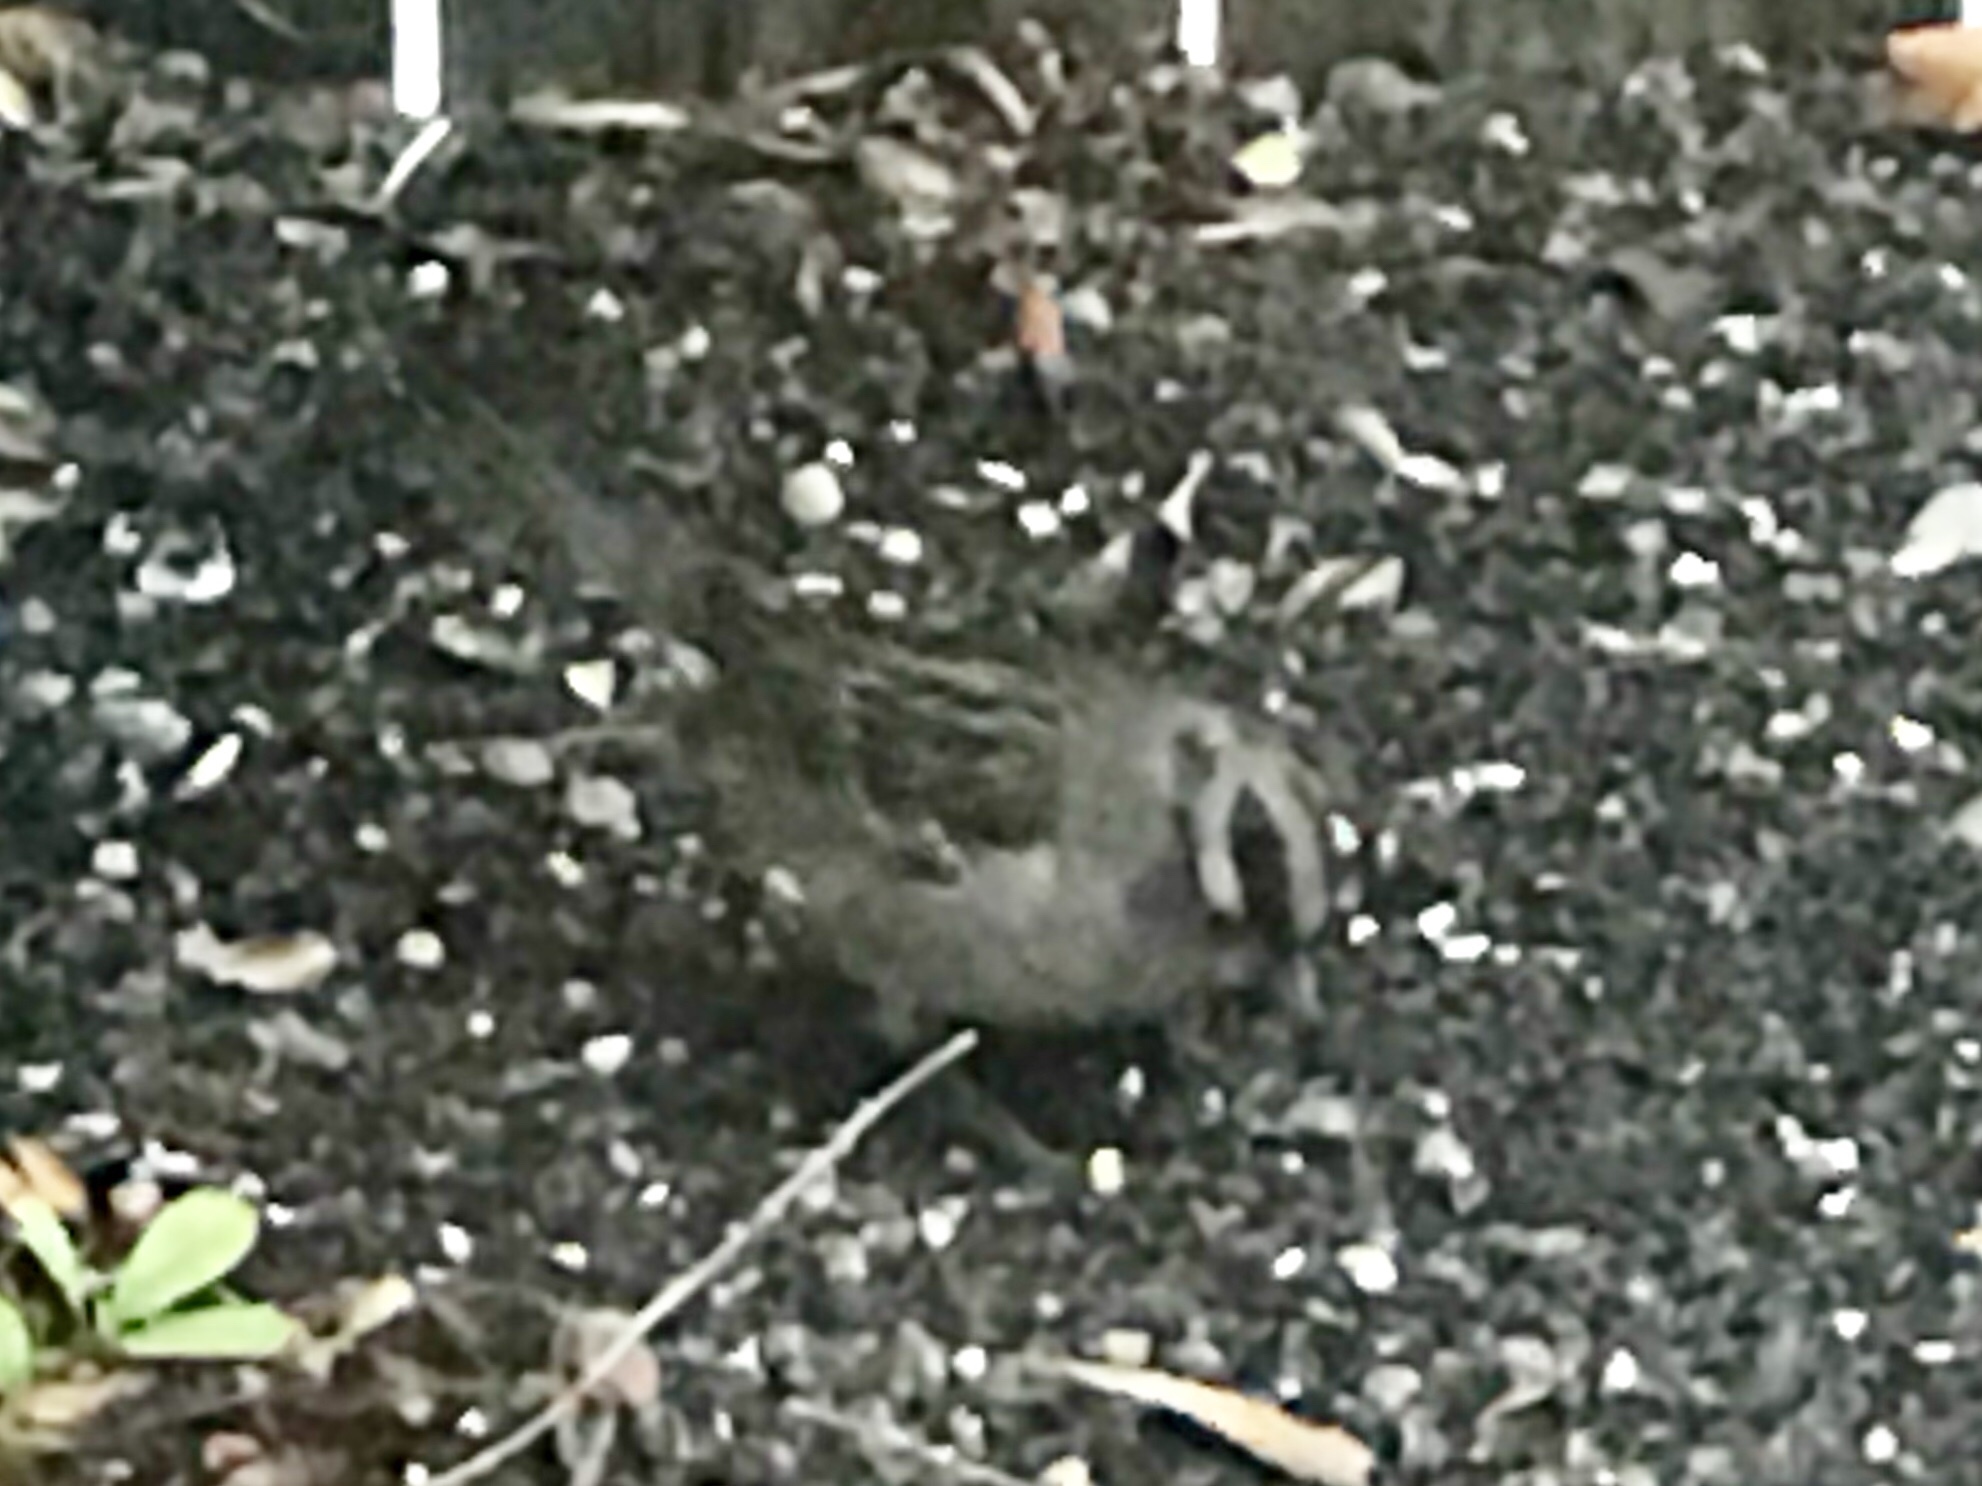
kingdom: Animalia
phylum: Chordata
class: Aves
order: Passeriformes
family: Passerellidae
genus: Zonotrichia
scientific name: Zonotrichia leucophrys
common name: White-crowned sparrow
